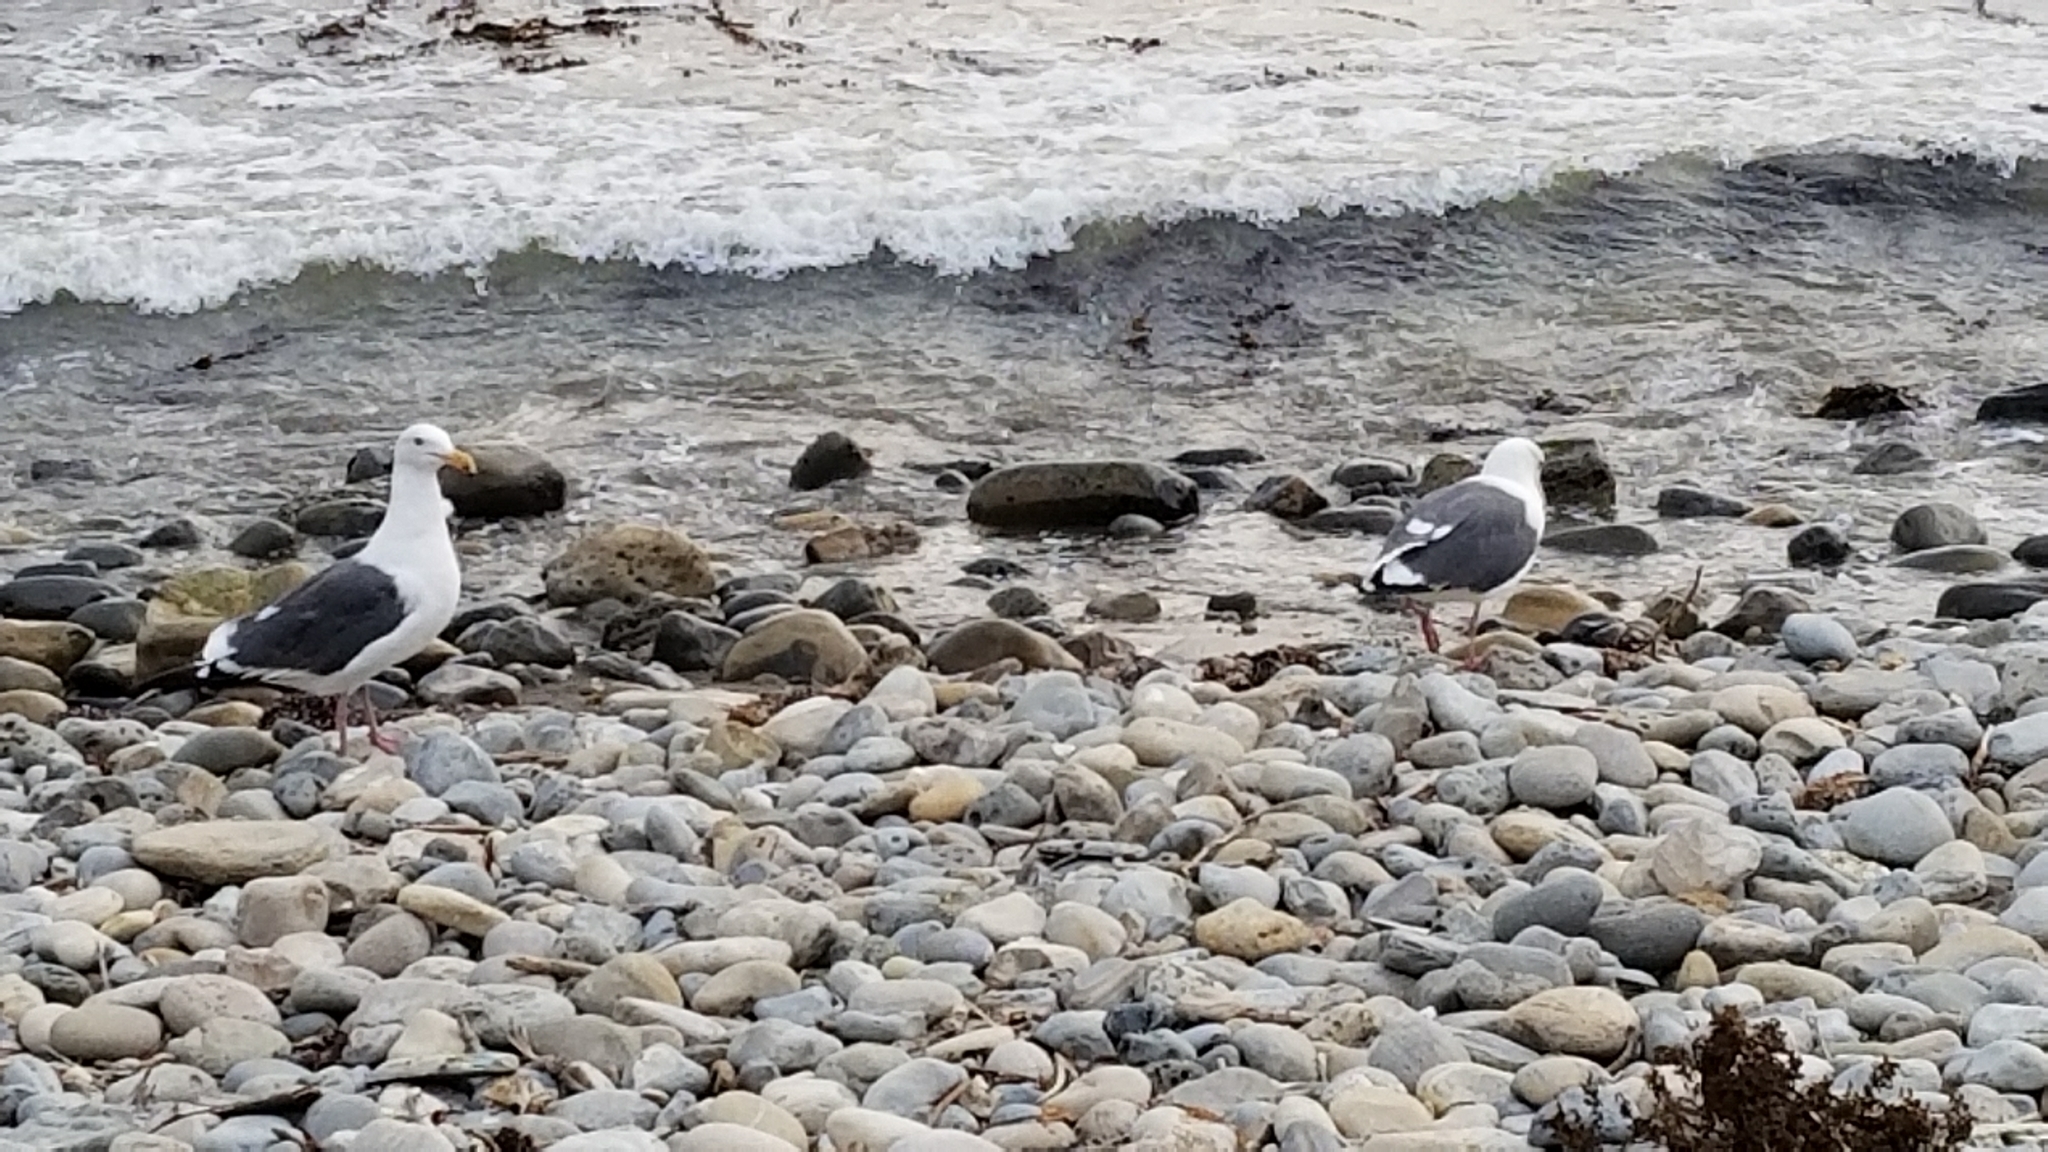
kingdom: Animalia
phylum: Chordata
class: Aves
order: Charadriiformes
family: Laridae
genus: Larus
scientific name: Larus occidentalis
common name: Western gull
